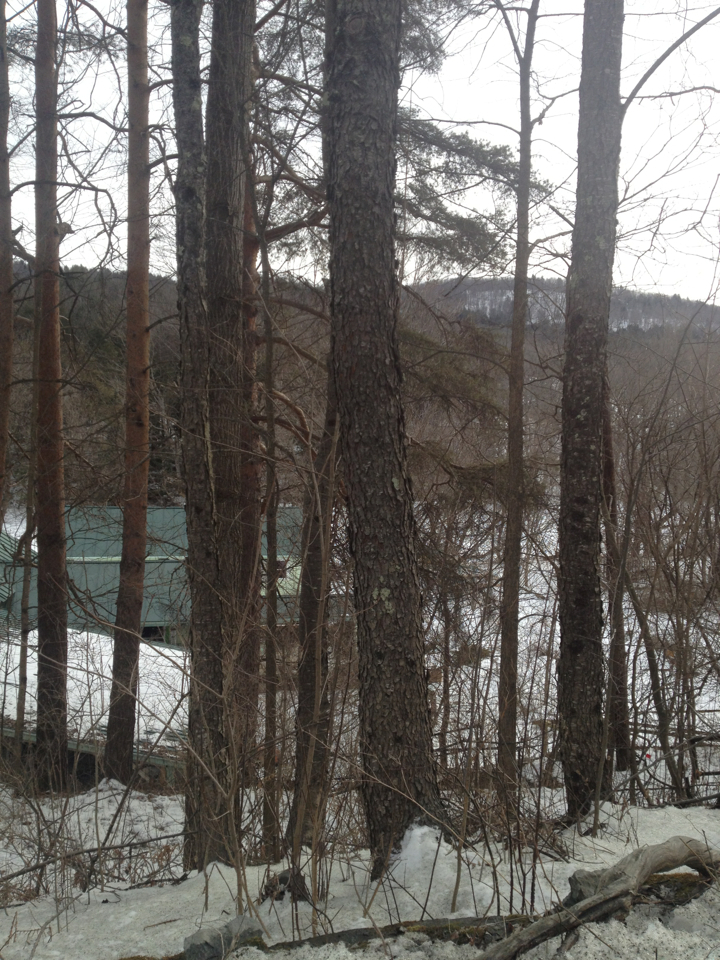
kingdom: Plantae
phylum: Tracheophyta
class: Magnoliopsida
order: Rosales
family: Rosaceae
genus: Prunus
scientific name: Prunus serotina
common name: Black cherry
